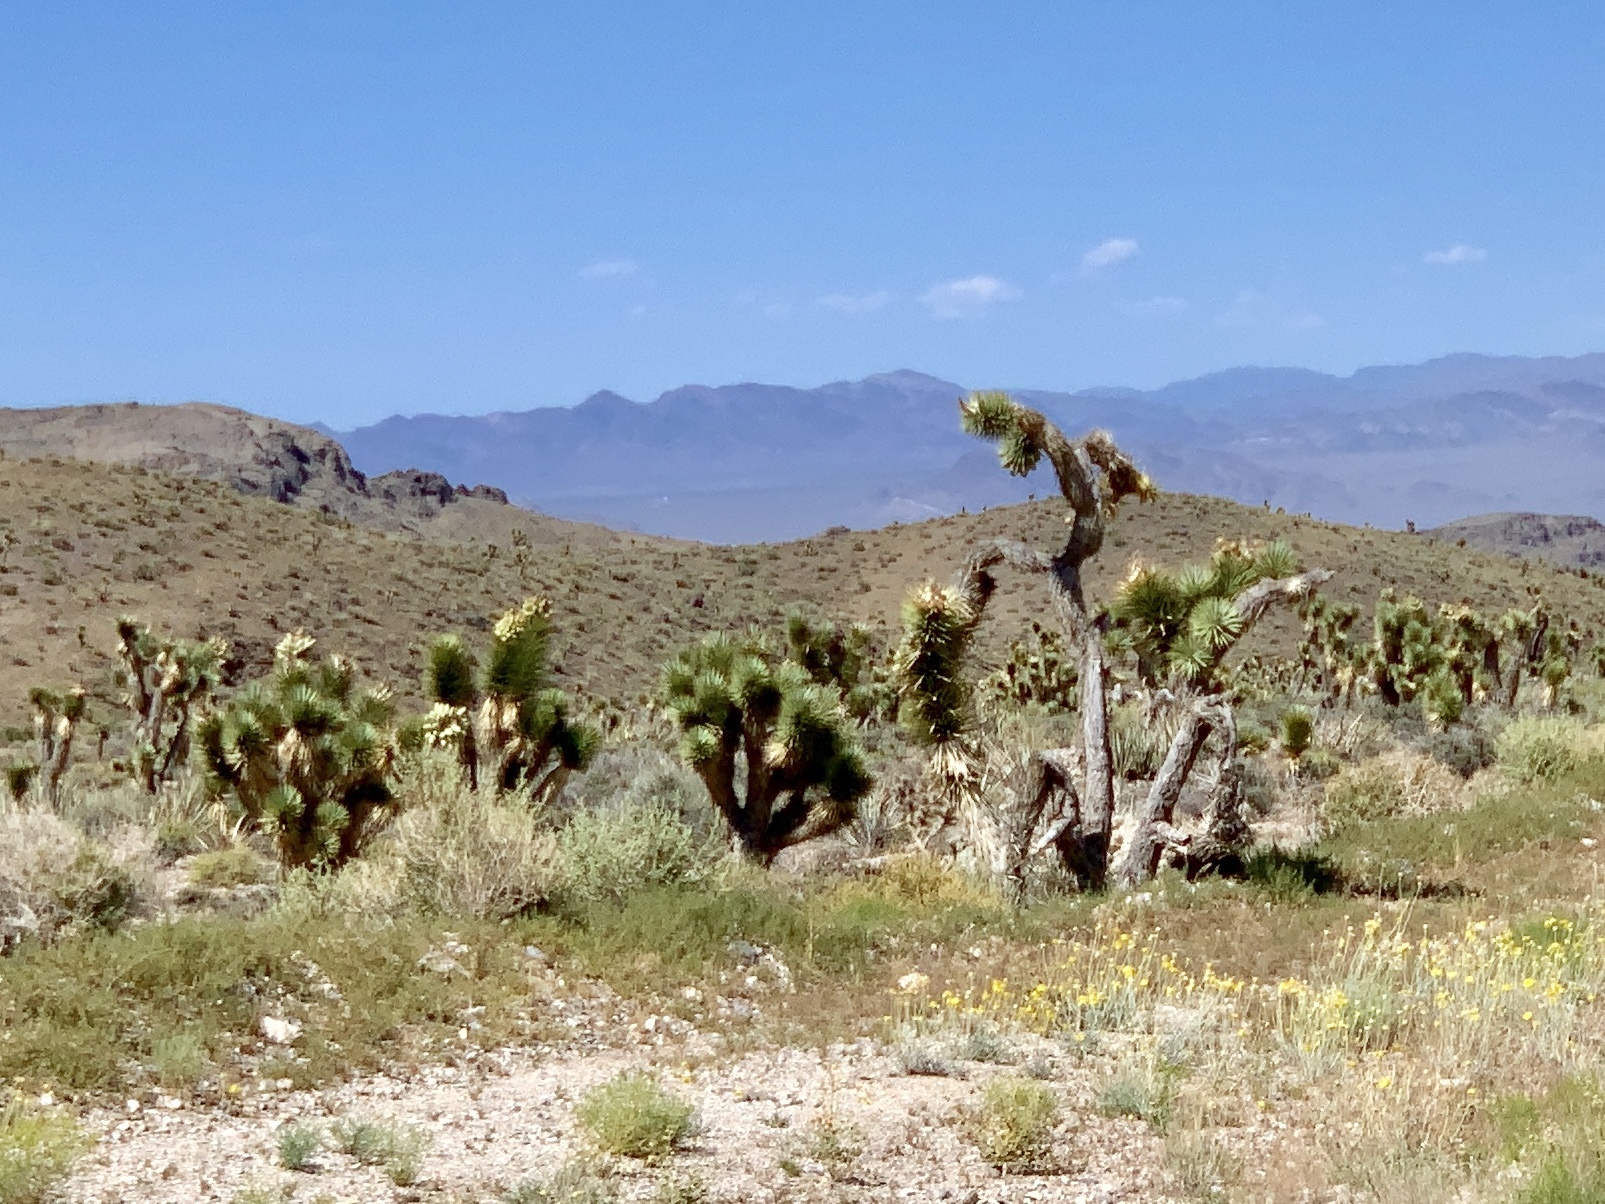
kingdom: Plantae
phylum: Tracheophyta
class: Liliopsida
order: Asparagales
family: Asparagaceae
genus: Yucca
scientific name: Yucca brevifolia
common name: Joshua tree
